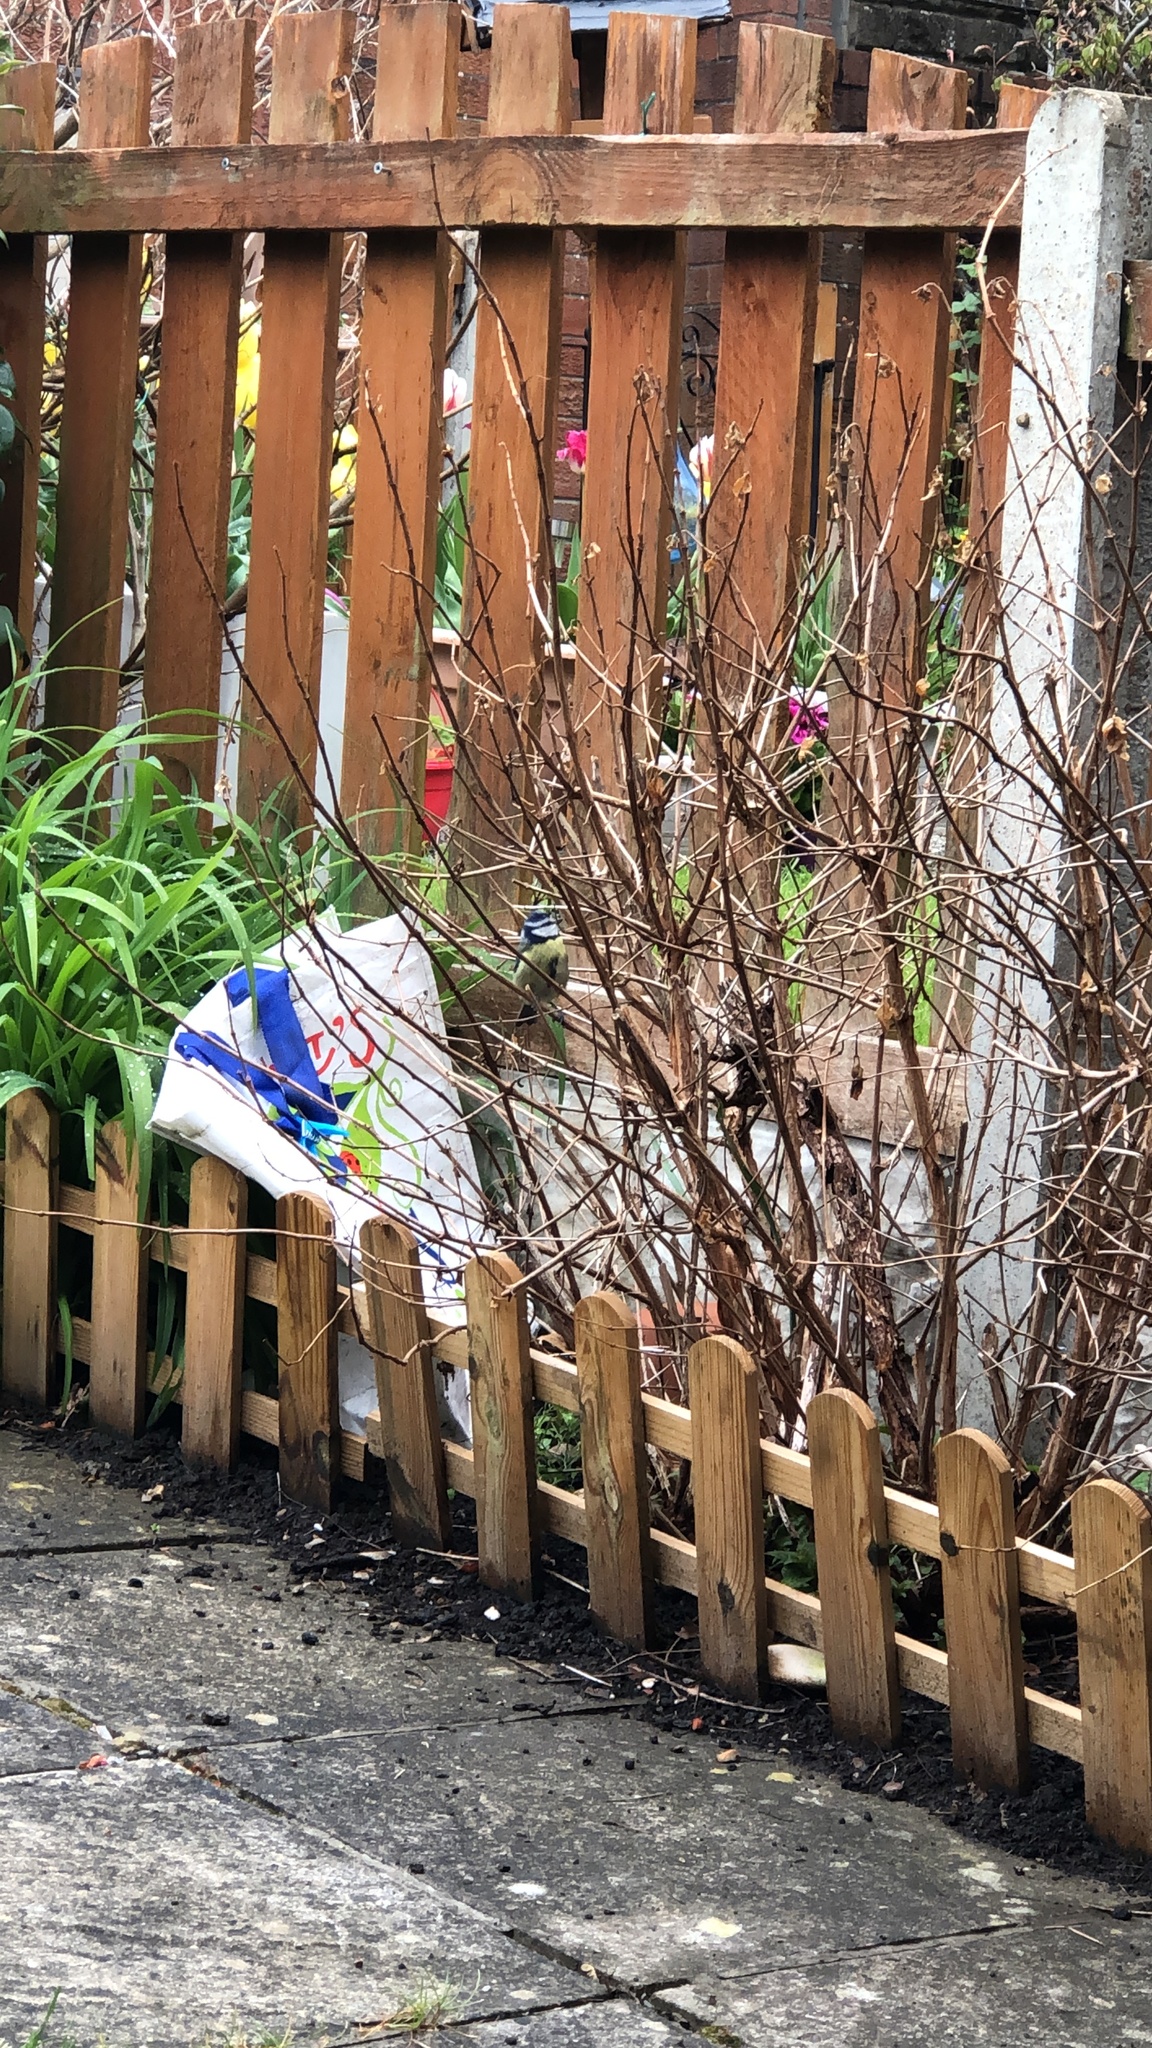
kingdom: Animalia
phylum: Chordata
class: Aves
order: Passeriformes
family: Paridae
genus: Cyanistes
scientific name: Cyanistes caeruleus
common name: Eurasian blue tit
